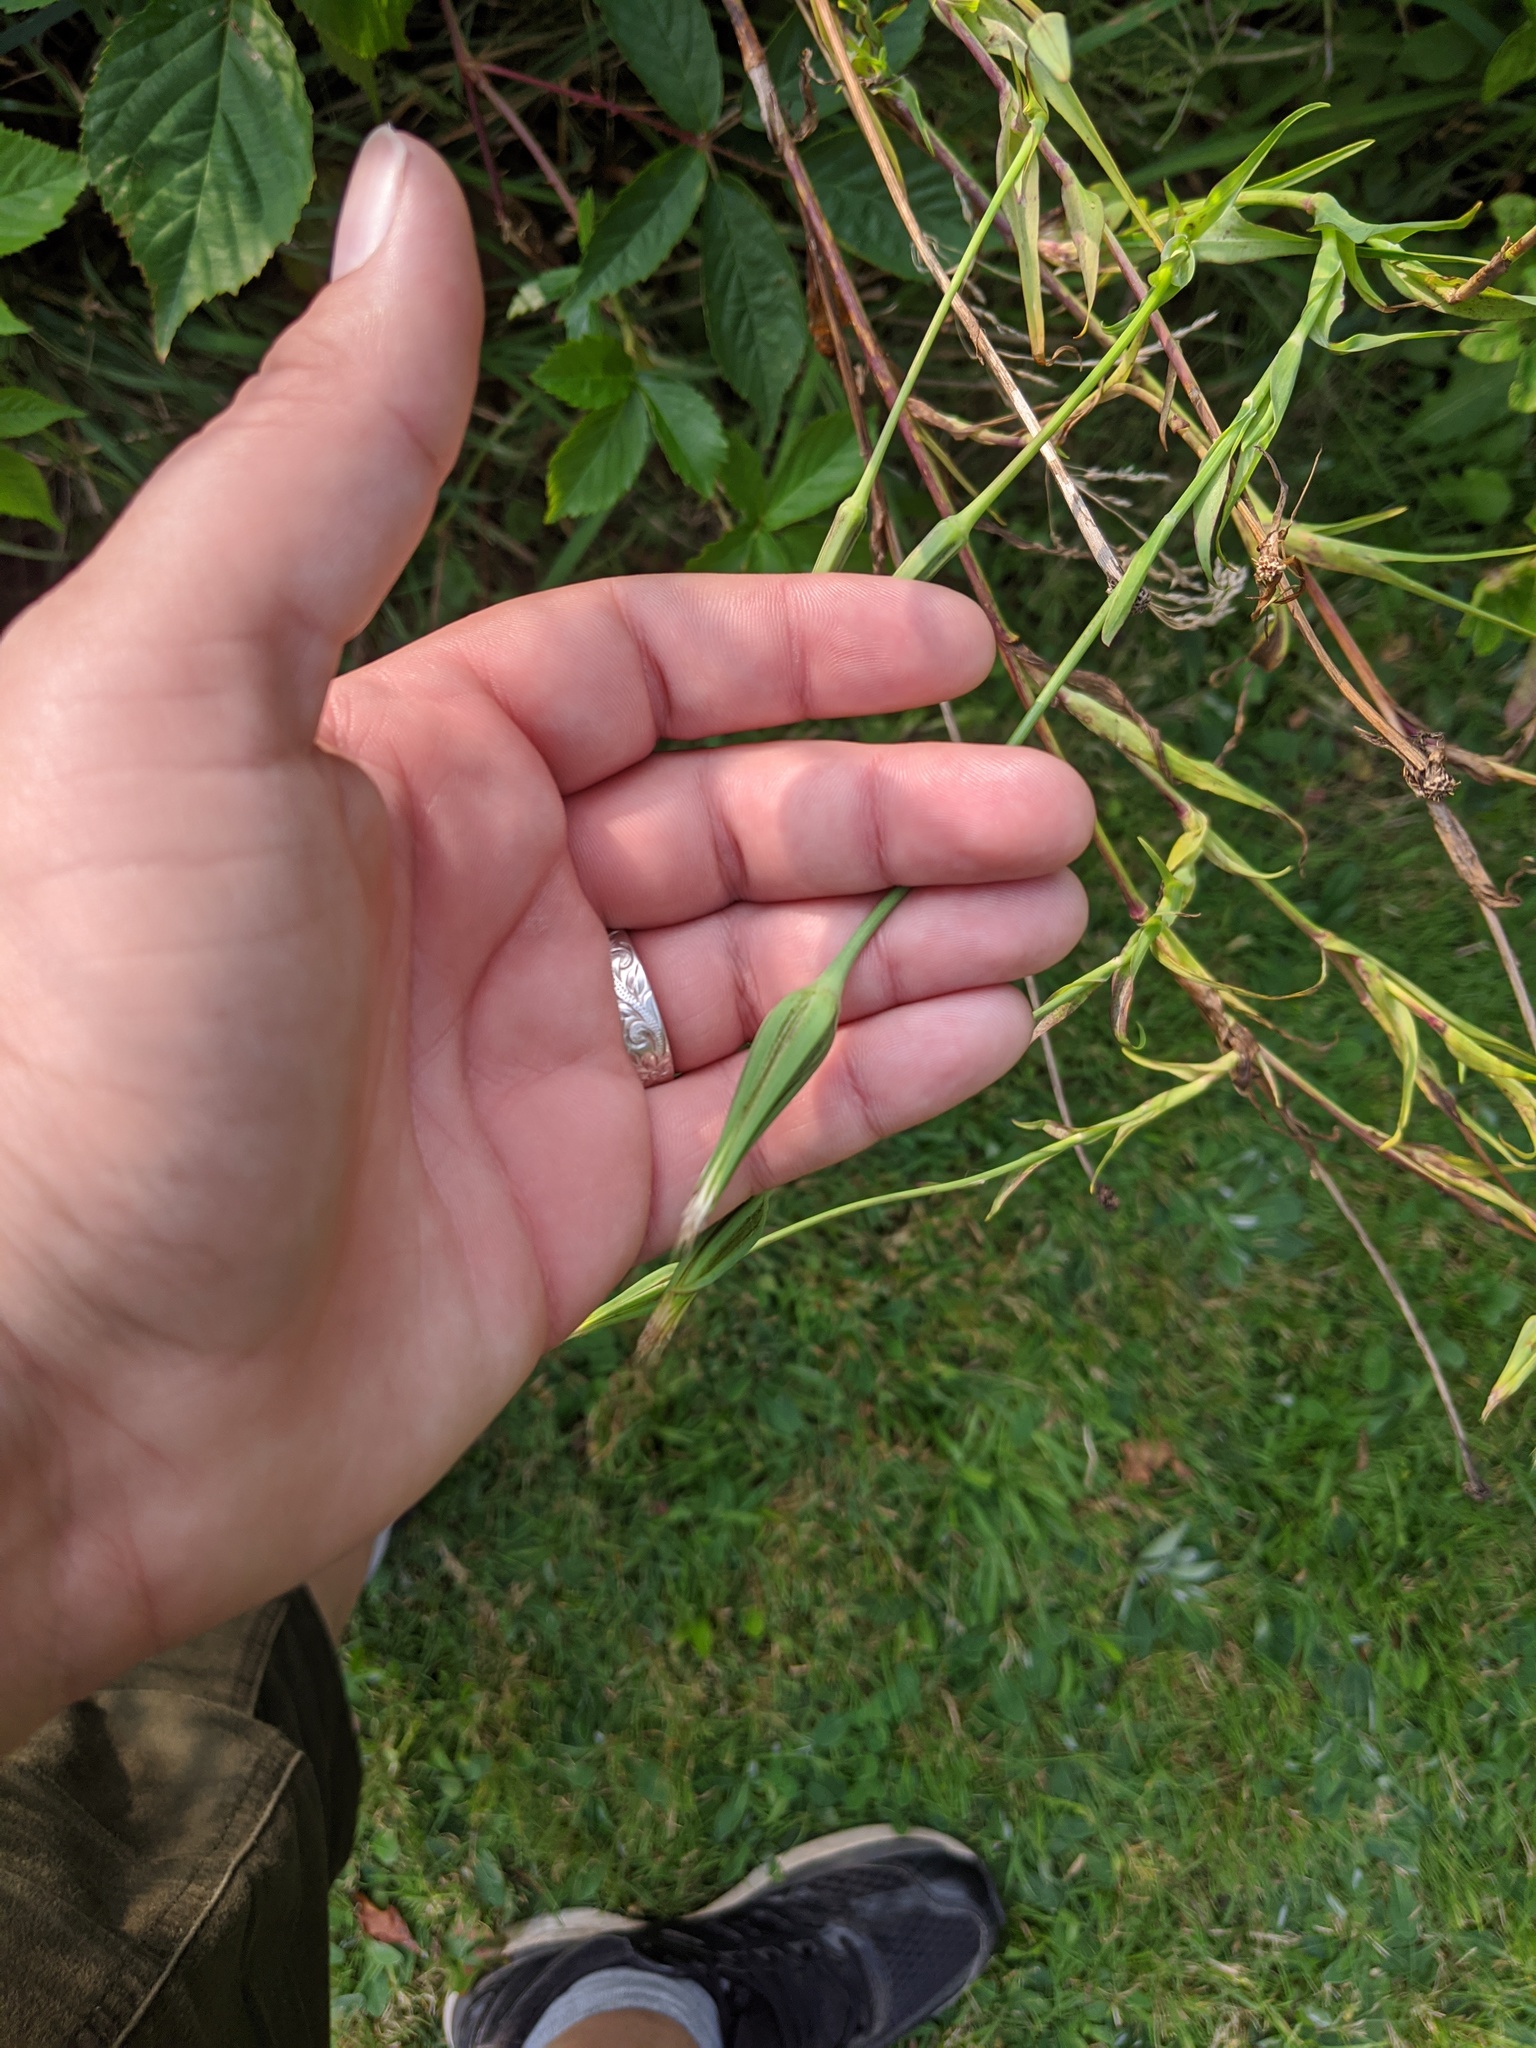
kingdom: Plantae
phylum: Tracheophyta
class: Magnoliopsida
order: Asterales
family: Asteraceae
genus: Tragopogon
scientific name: Tragopogon pratensis
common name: Goat's-beard
